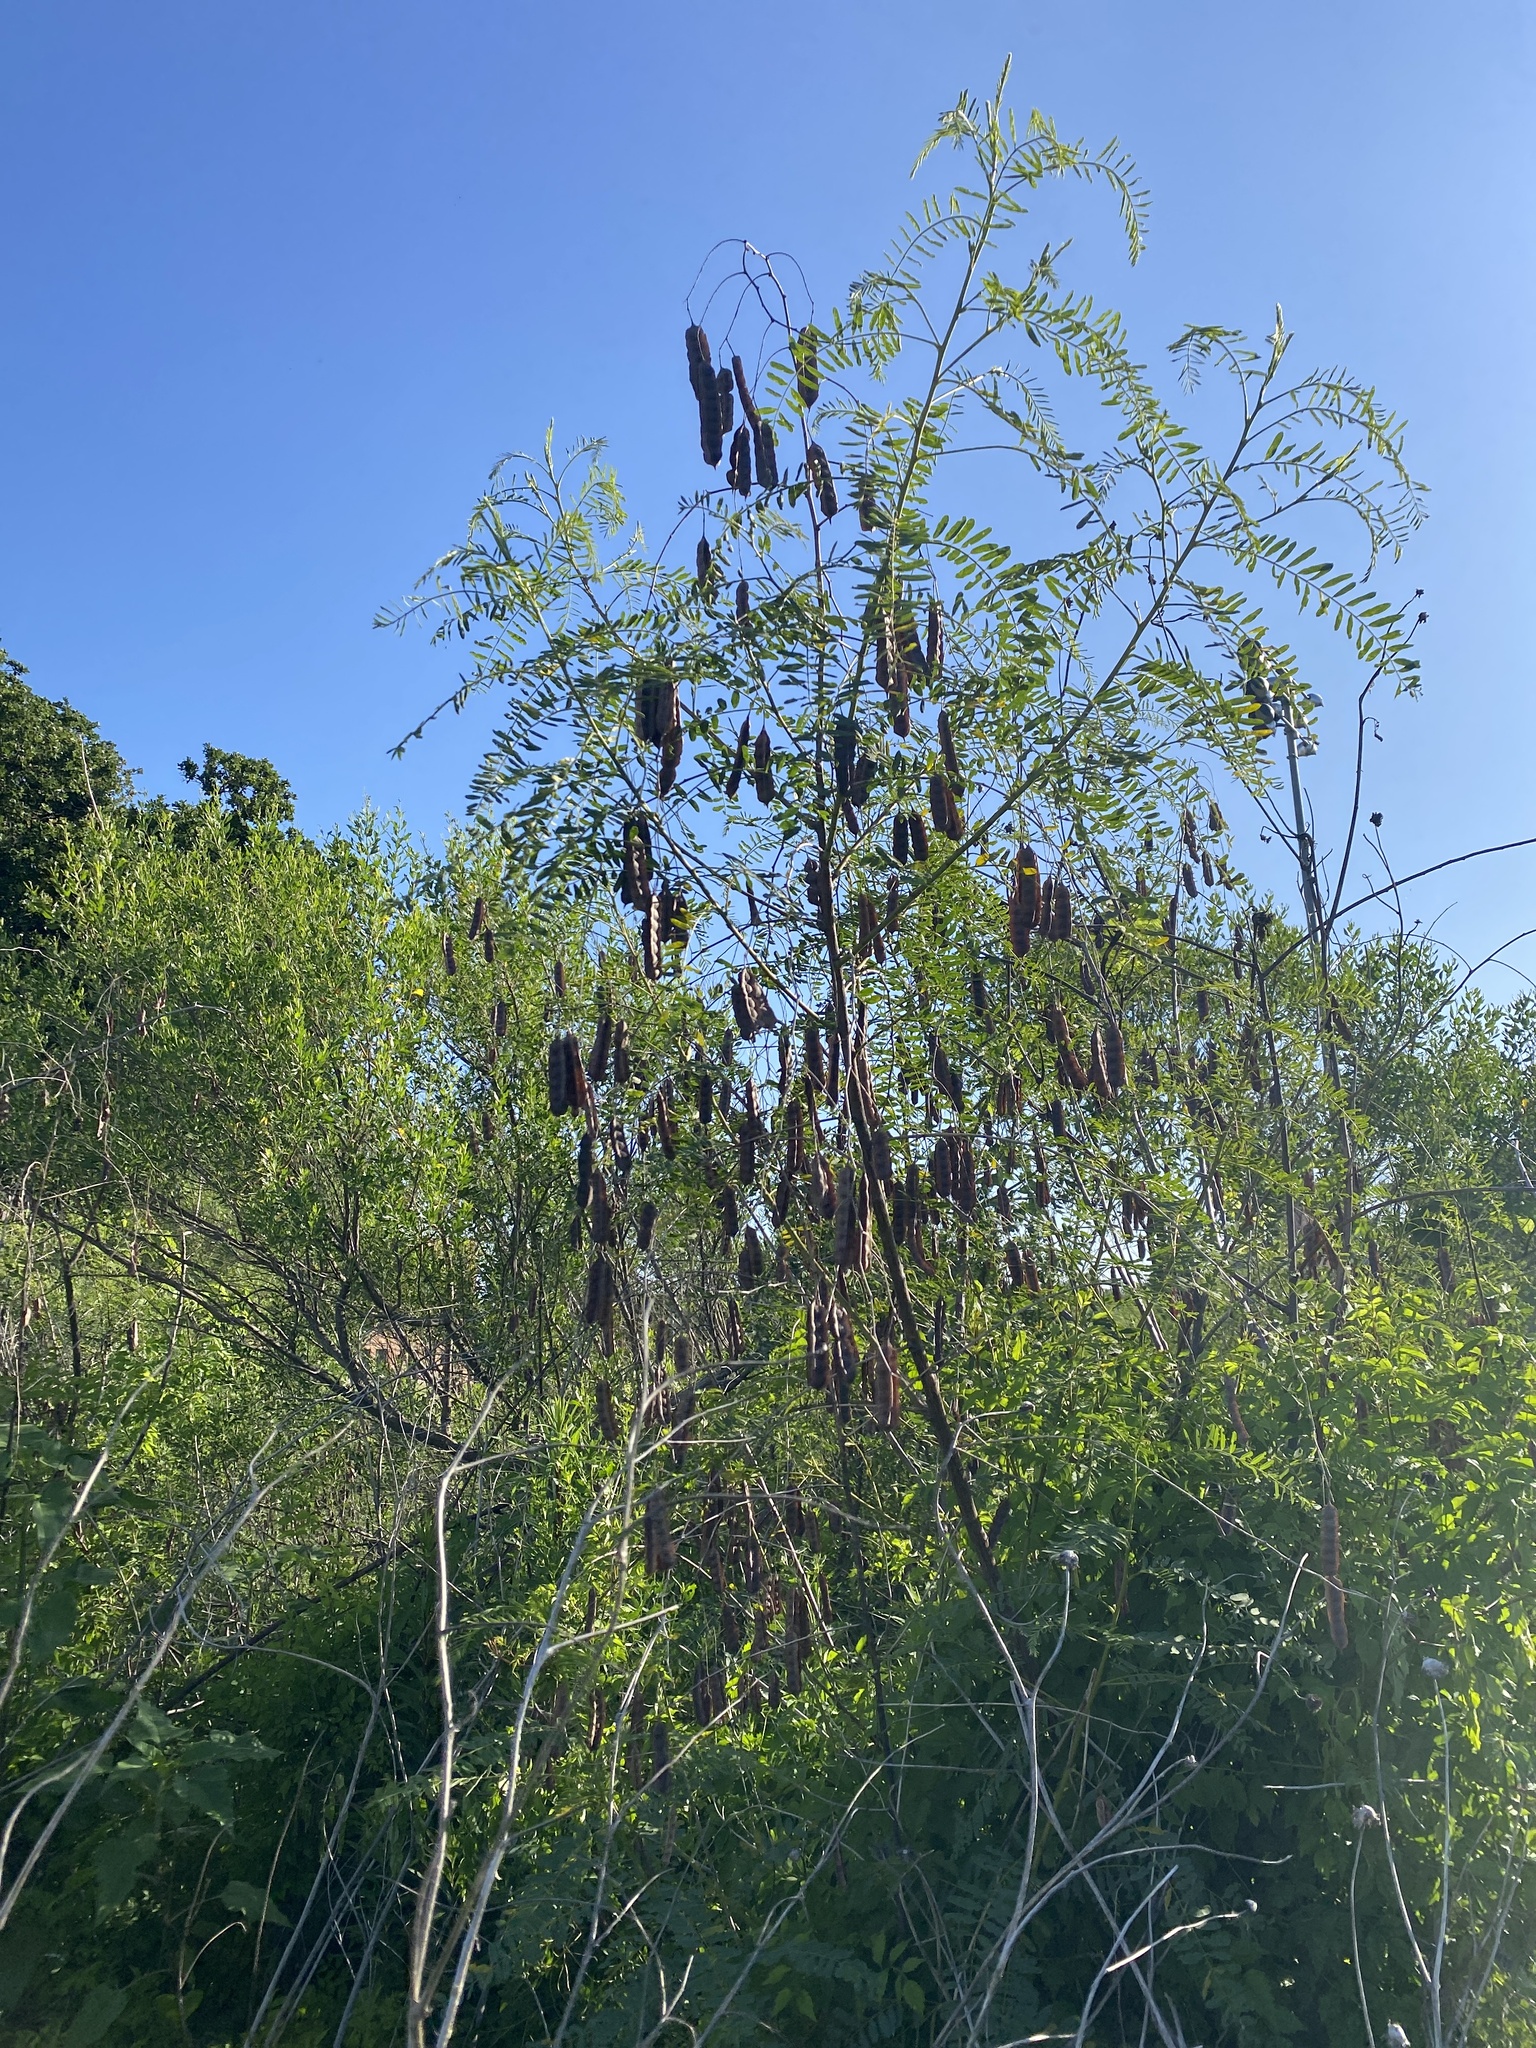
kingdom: Plantae
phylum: Tracheophyta
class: Magnoliopsida
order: Fabales
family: Fabaceae
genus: Sesbania
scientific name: Sesbania drummondii
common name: Poison-bean
